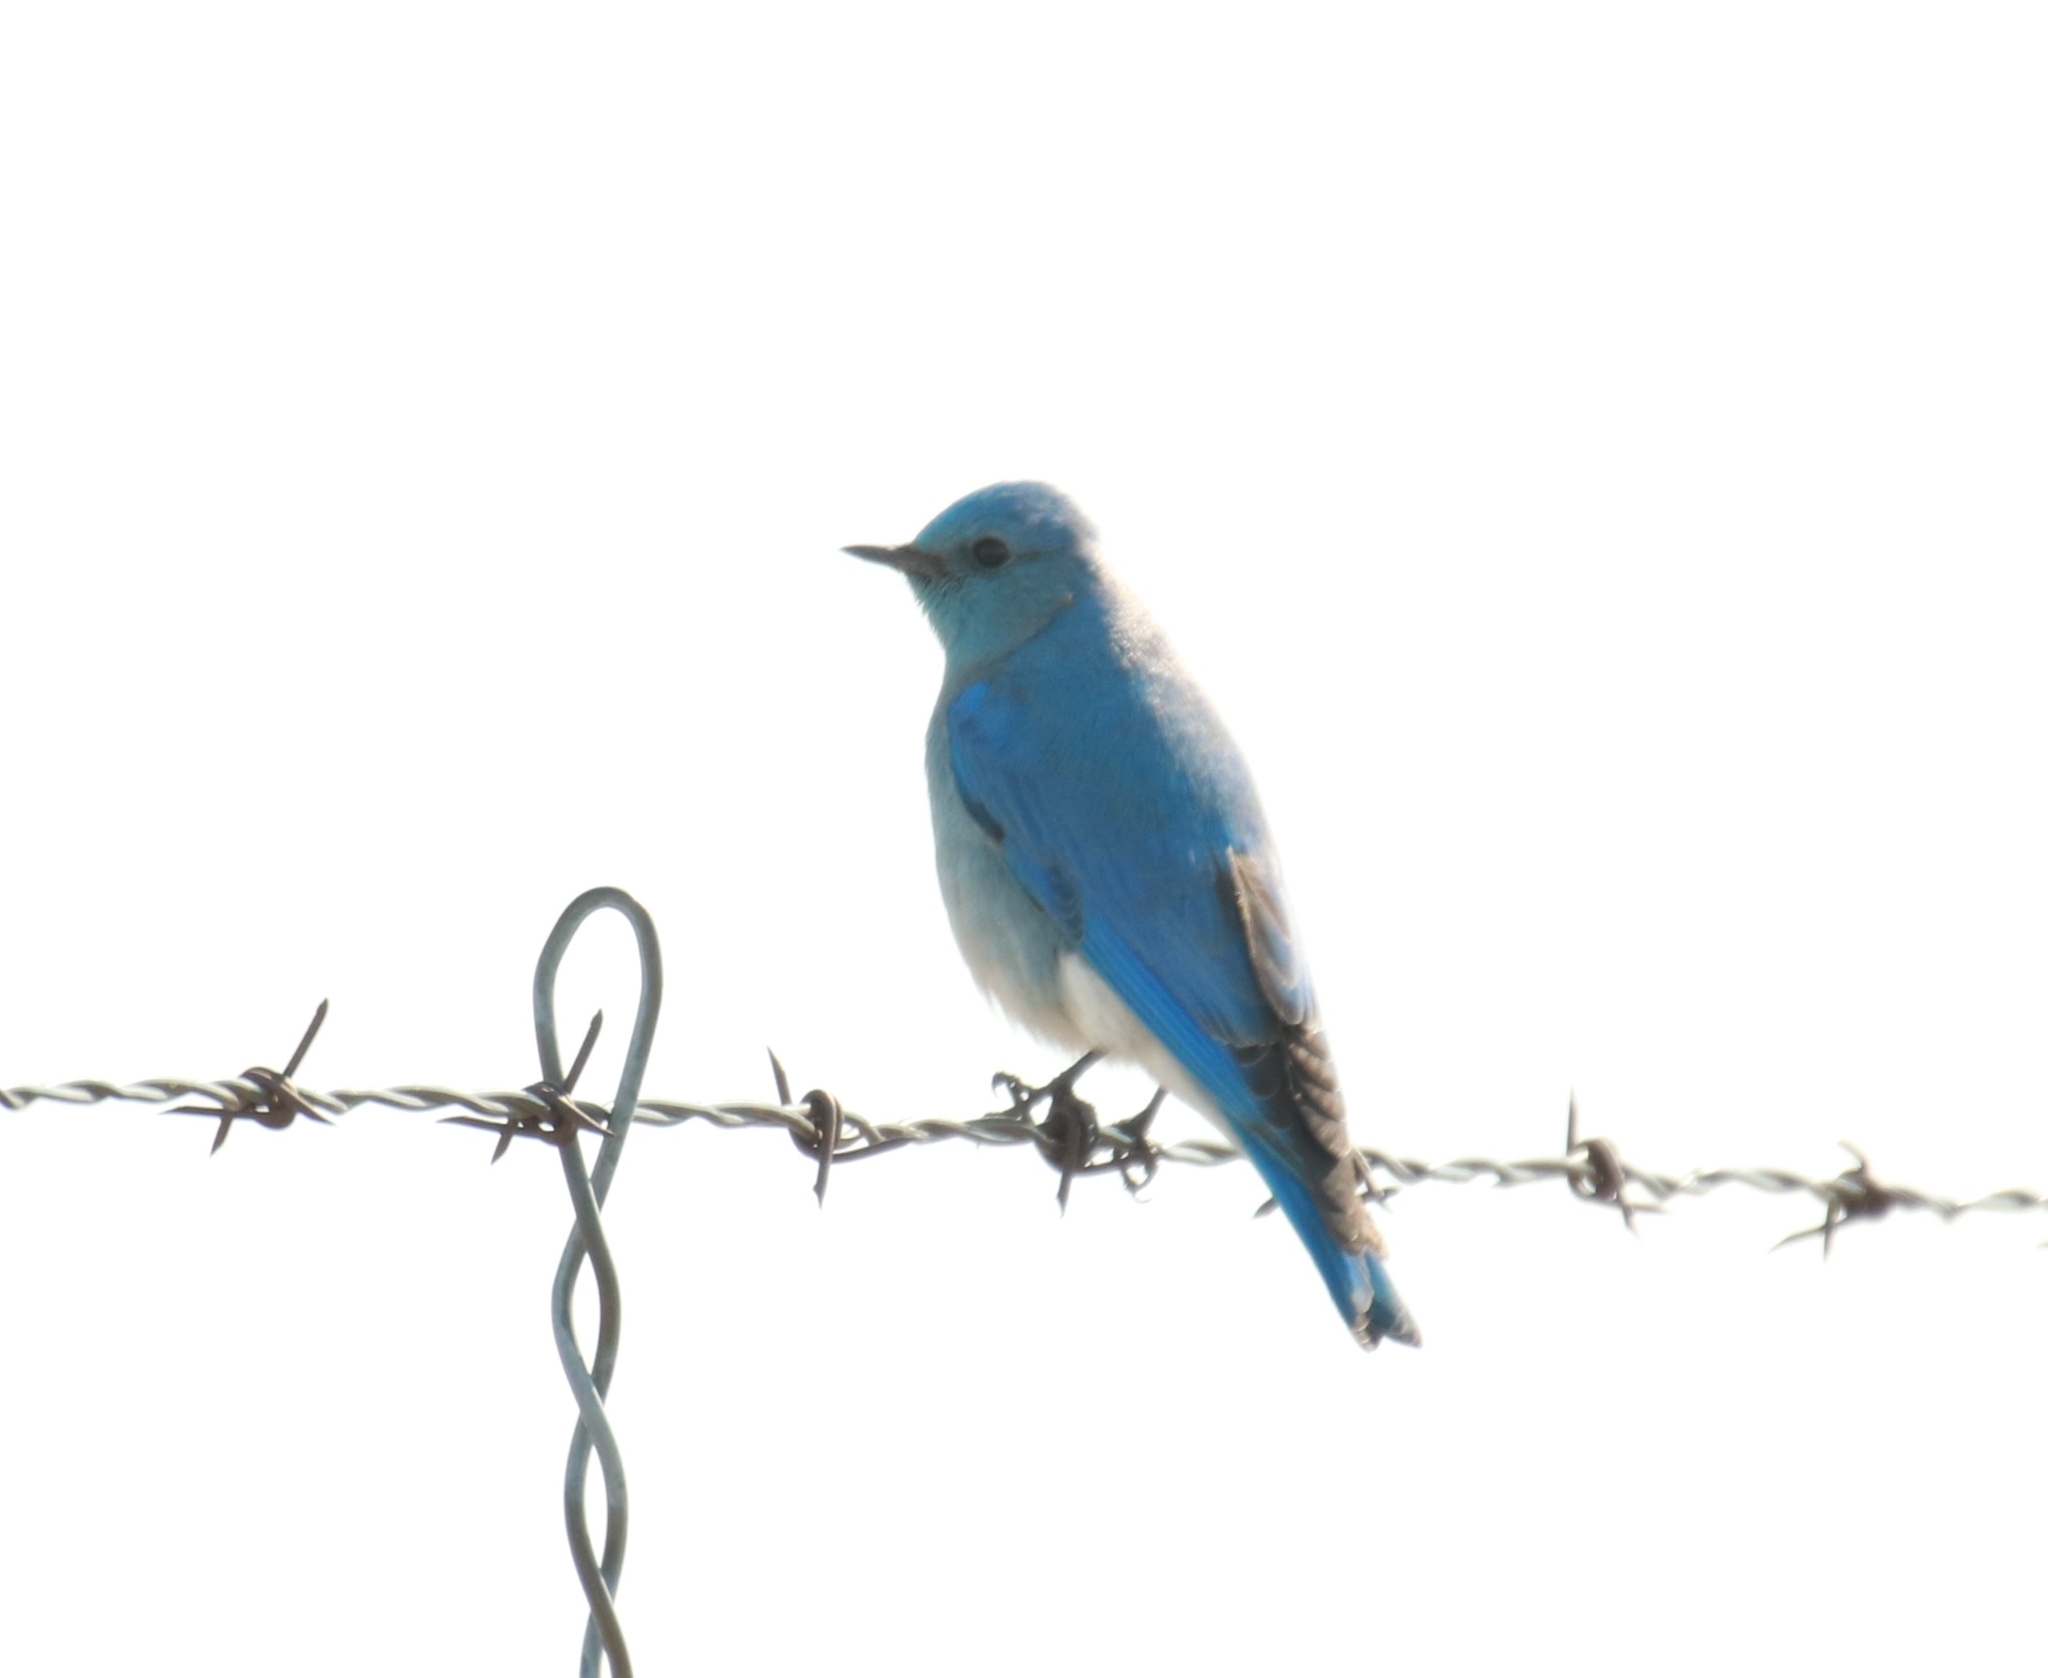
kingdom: Animalia
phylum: Chordata
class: Aves
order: Passeriformes
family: Turdidae
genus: Sialia
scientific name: Sialia currucoides
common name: Mountain bluebird
